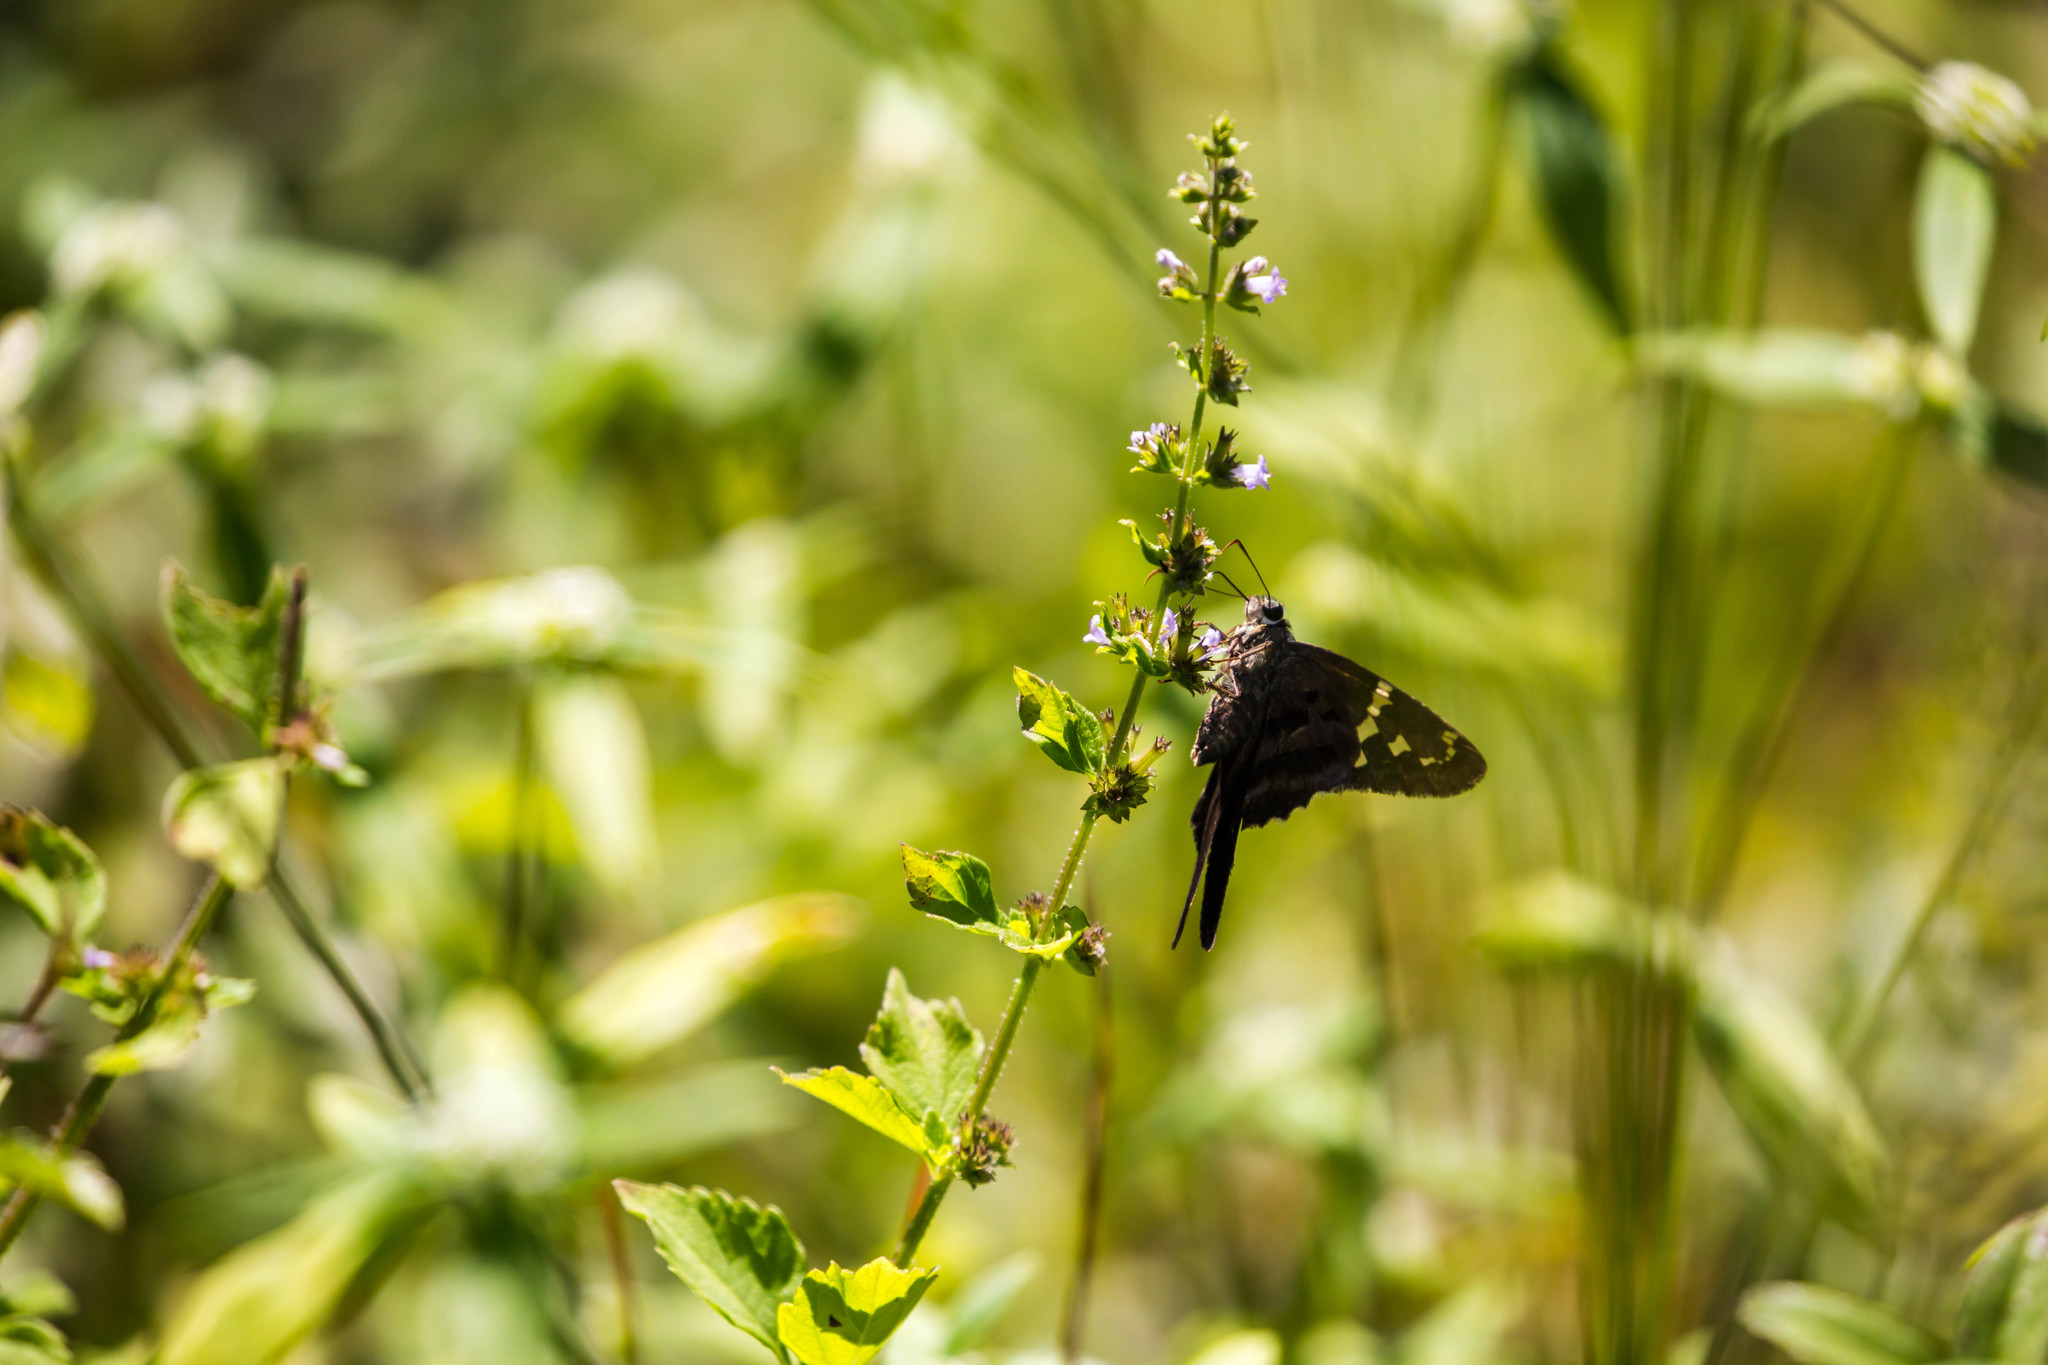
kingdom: Animalia
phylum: Arthropoda
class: Insecta
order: Lepidoptera
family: Hesperiidae
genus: Urbanus
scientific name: Urbanus proteus
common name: Long-tailed skipper
